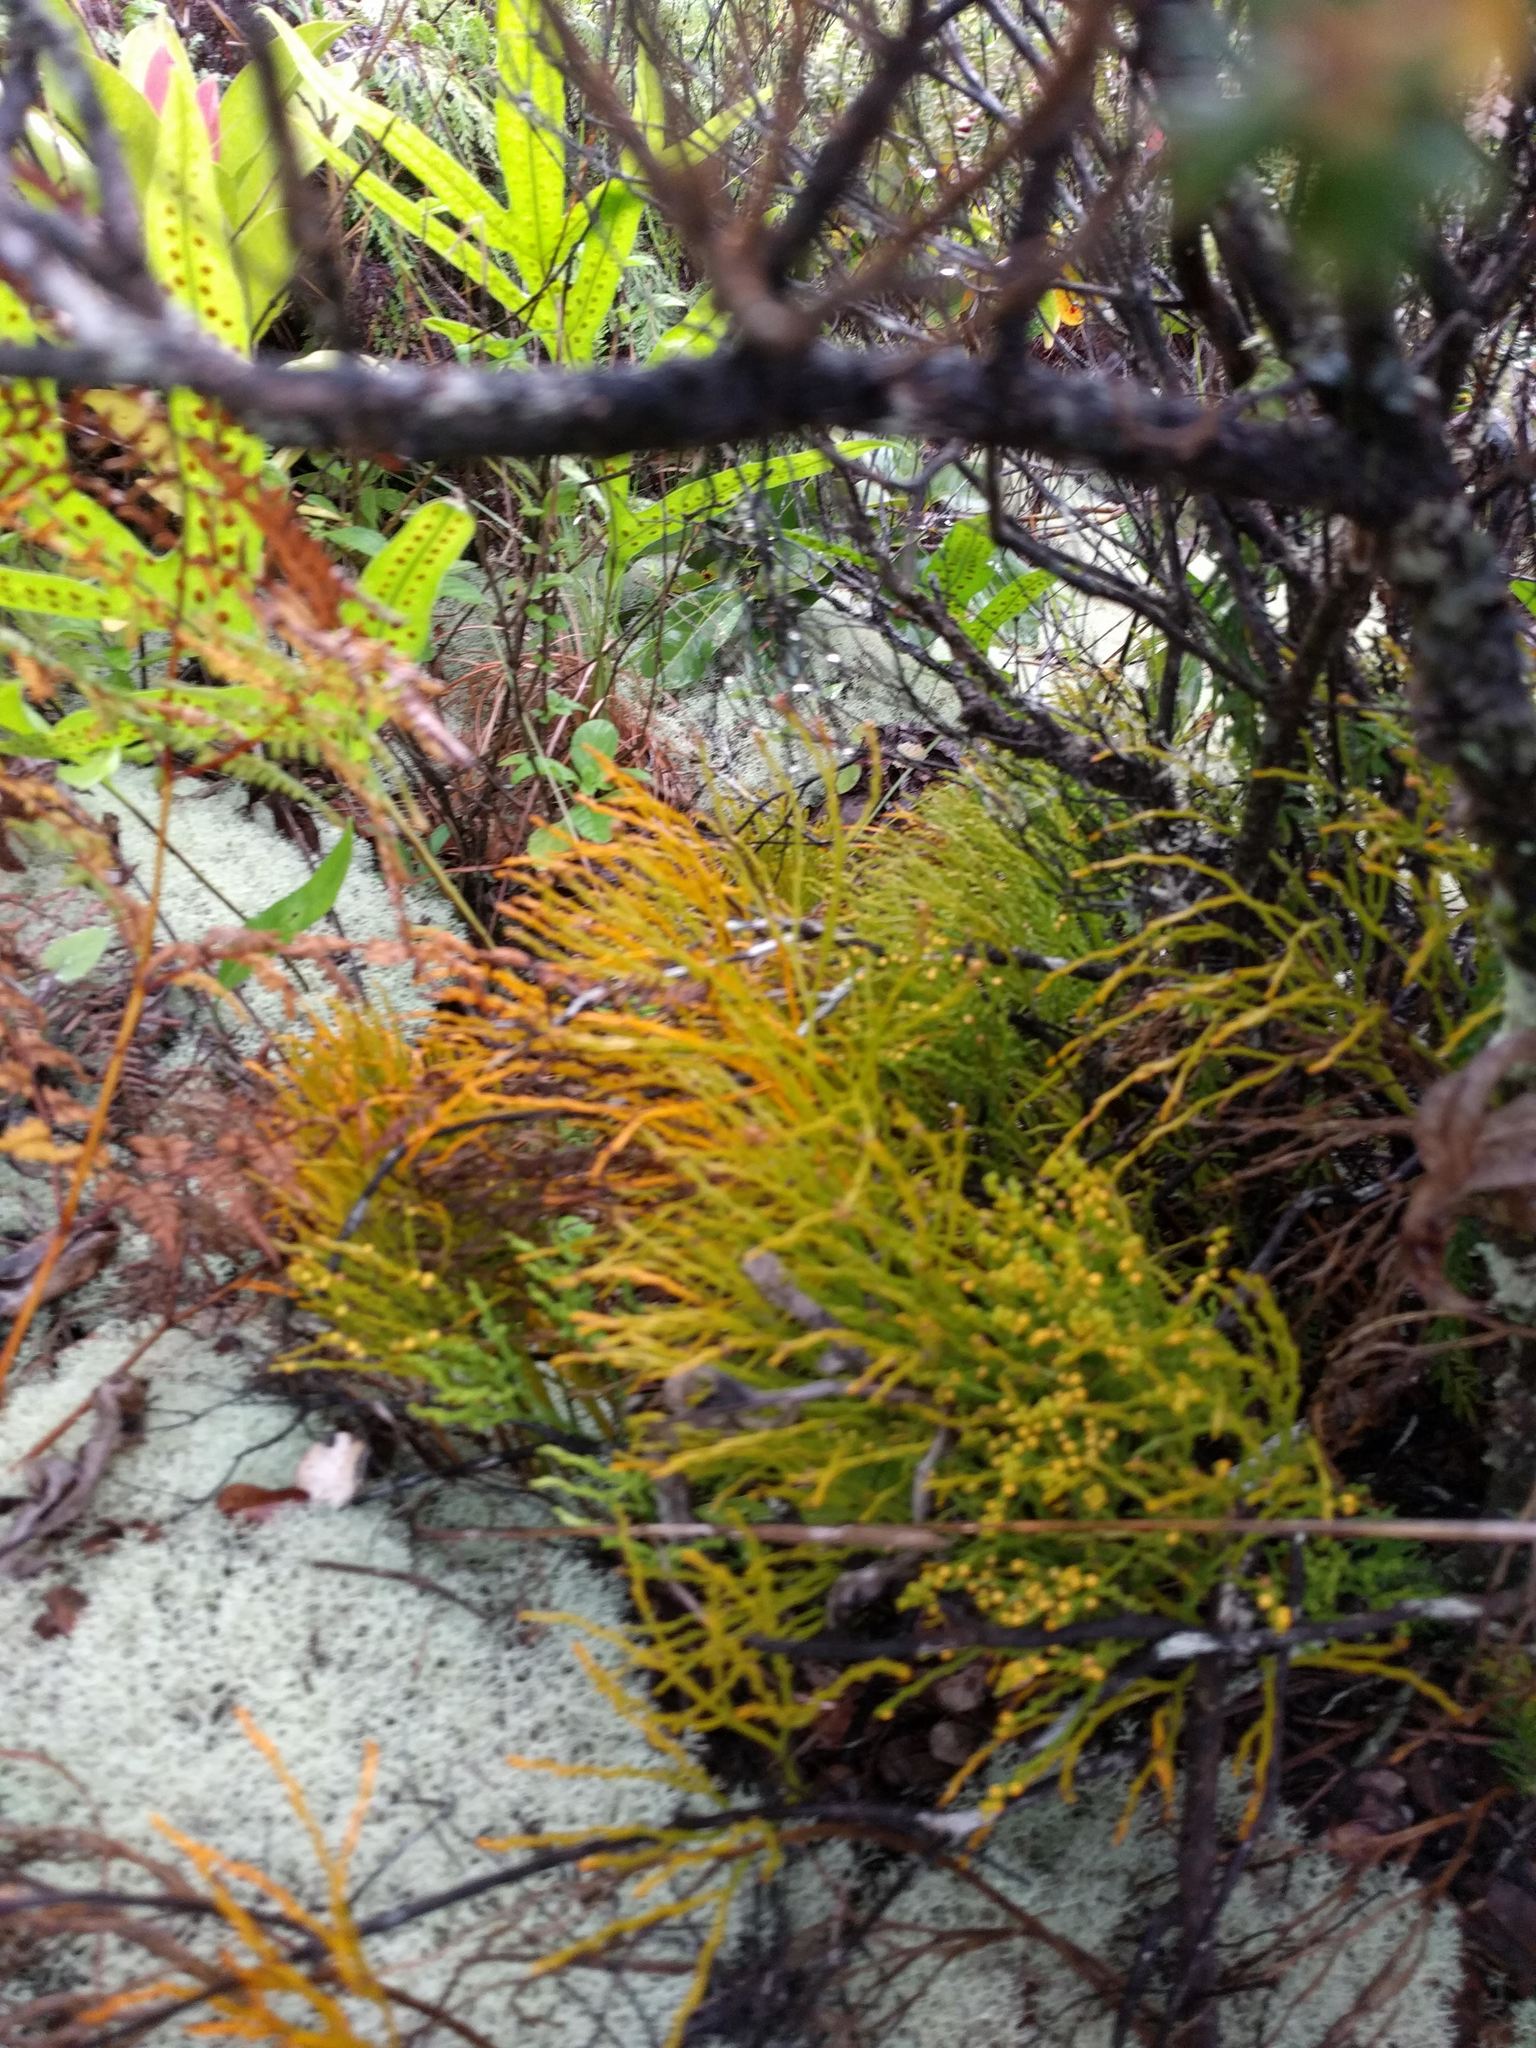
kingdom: Plantae
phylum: Tracheophyta
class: Polypodiopsida
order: Psilotales
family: Psilotaceae
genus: Psilotum
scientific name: Psilotum nudum
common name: Skeleton fork fern
